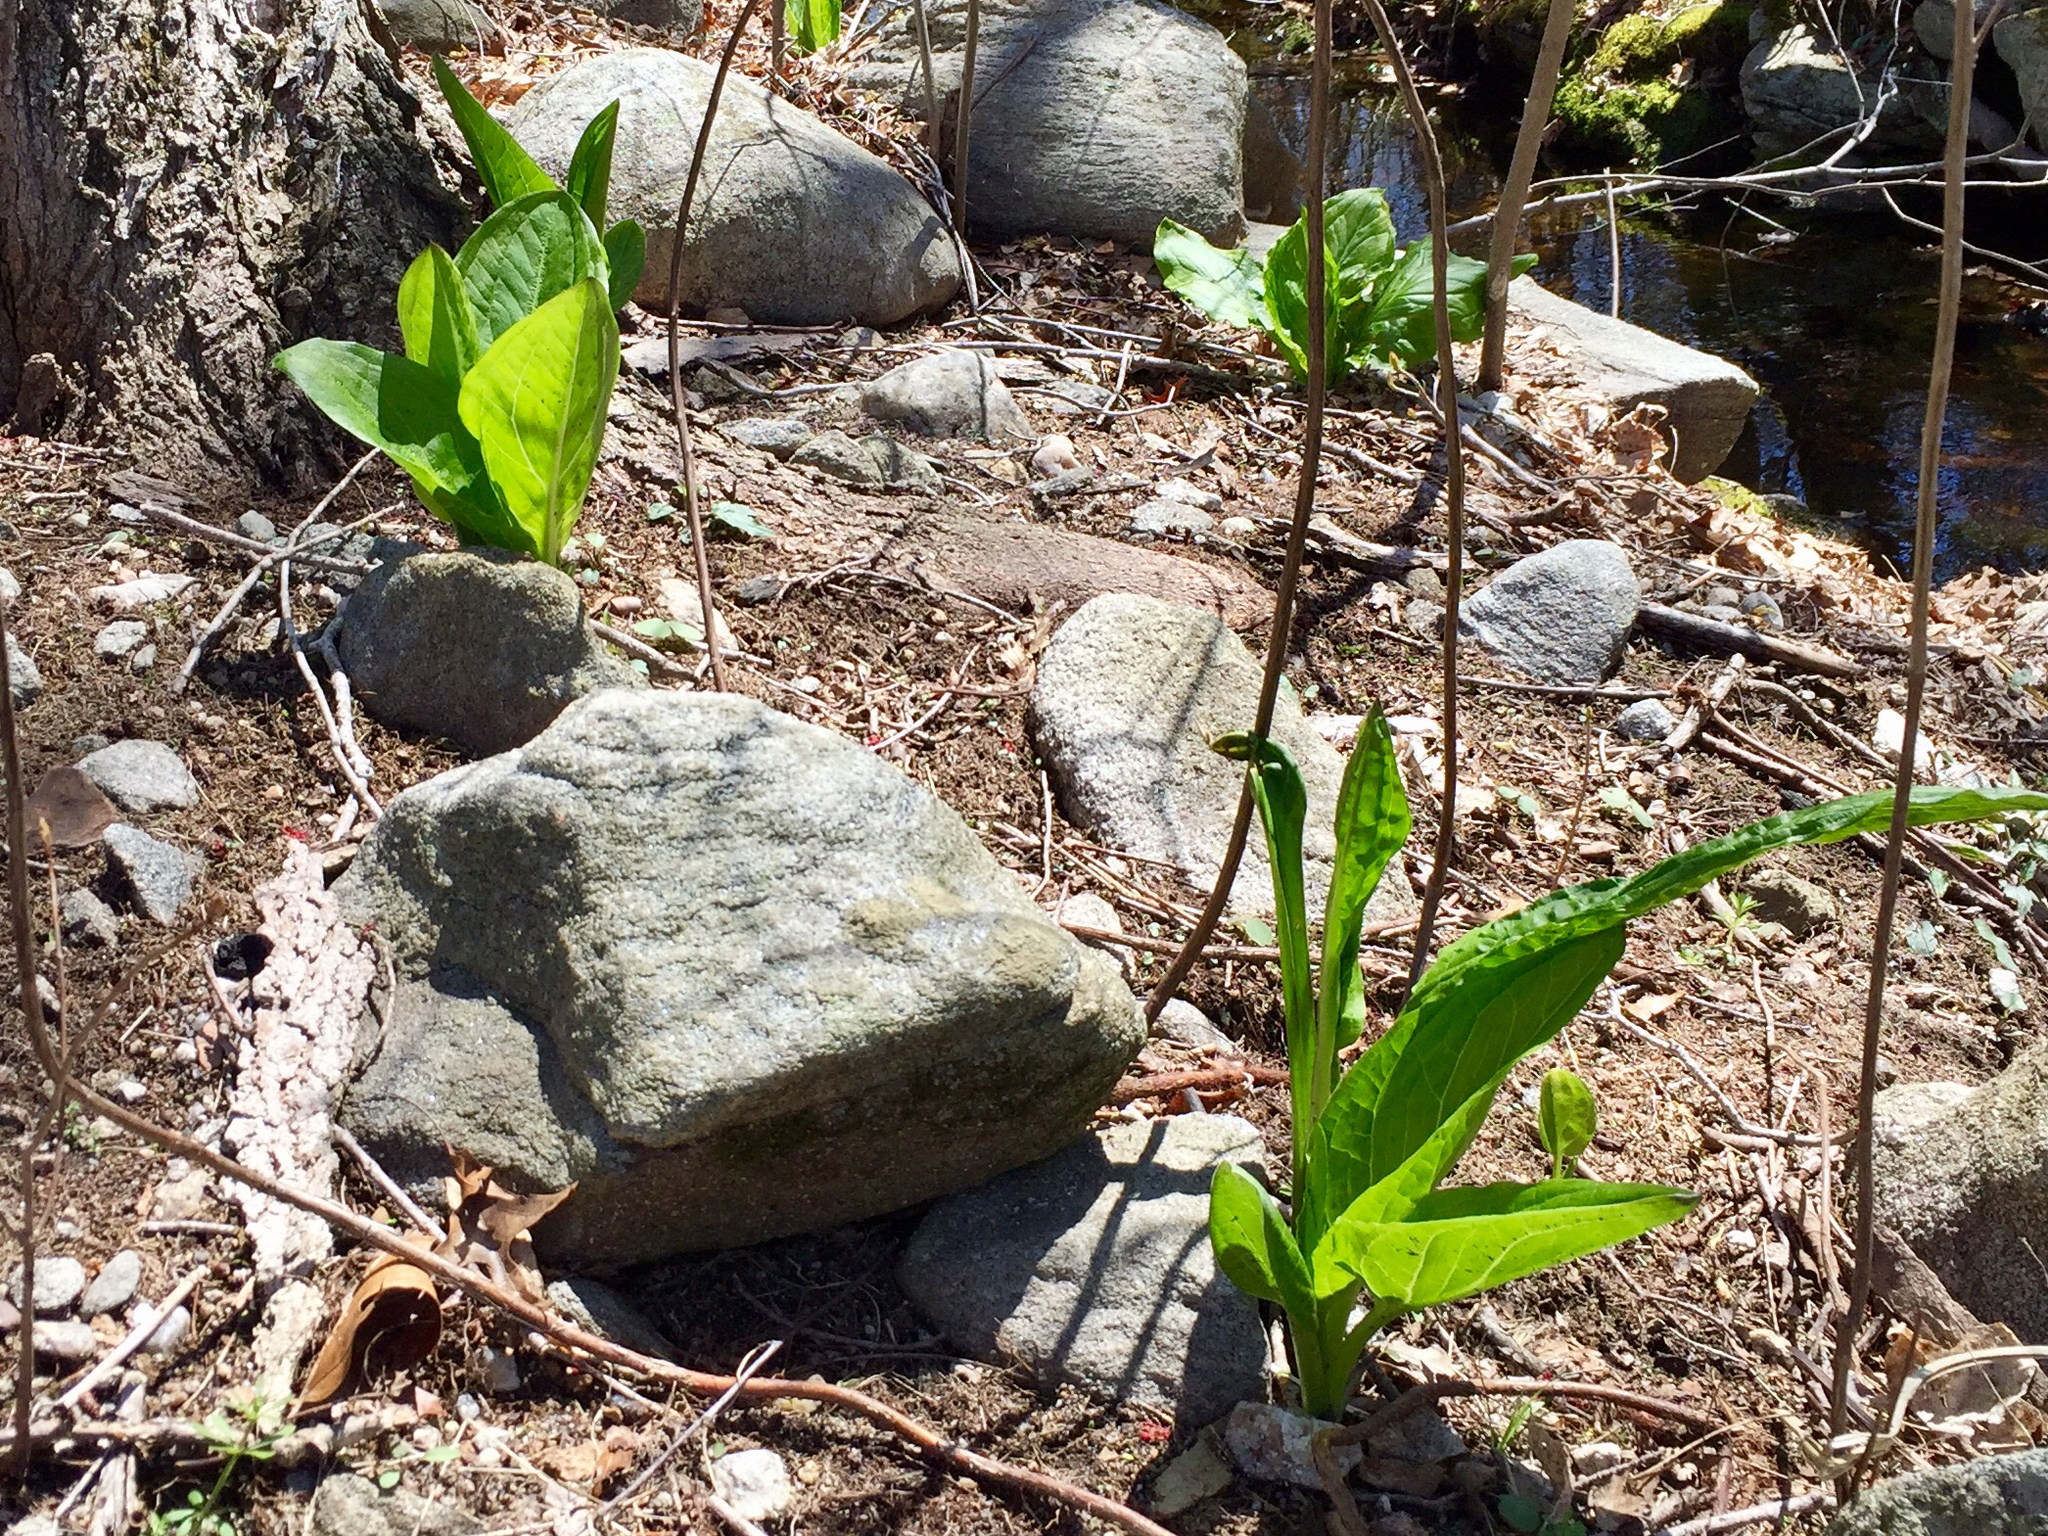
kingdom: Plantae
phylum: Tracheophyta
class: Liliopsida
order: Alismatales
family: Araceae
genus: Symplocarpus
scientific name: Symplocarpus foetidus
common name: Eastern skunk cabbage
